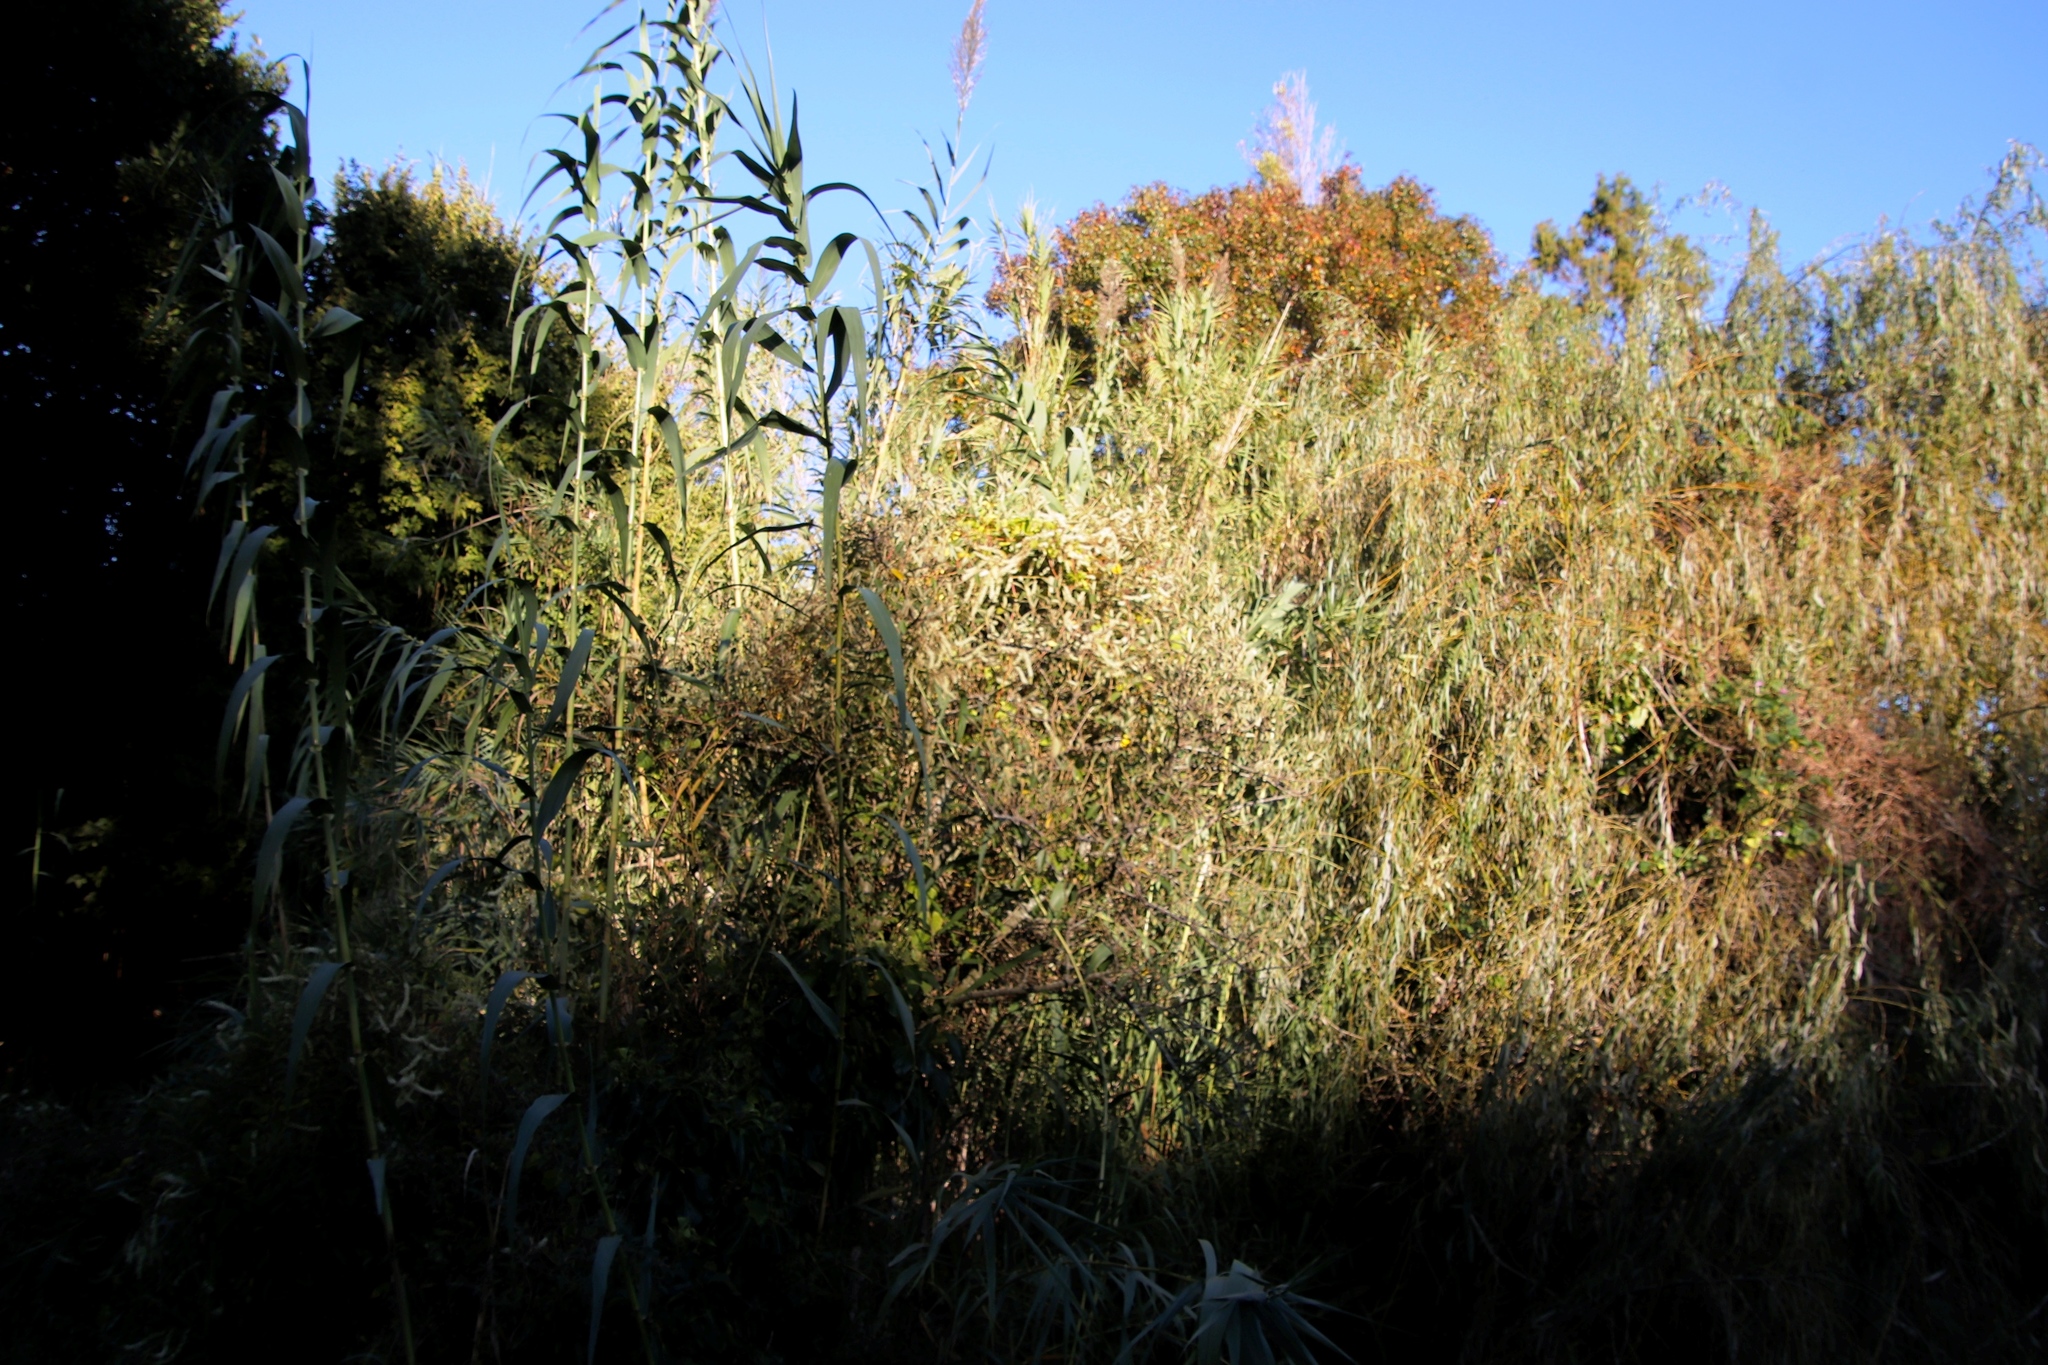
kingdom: Plantae
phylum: Tracheophyta
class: Magnoliopsida
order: Caryophyllales
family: Basellaceae
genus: Anredera
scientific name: Anredera cordifolia
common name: Heartleaf madeiravine
